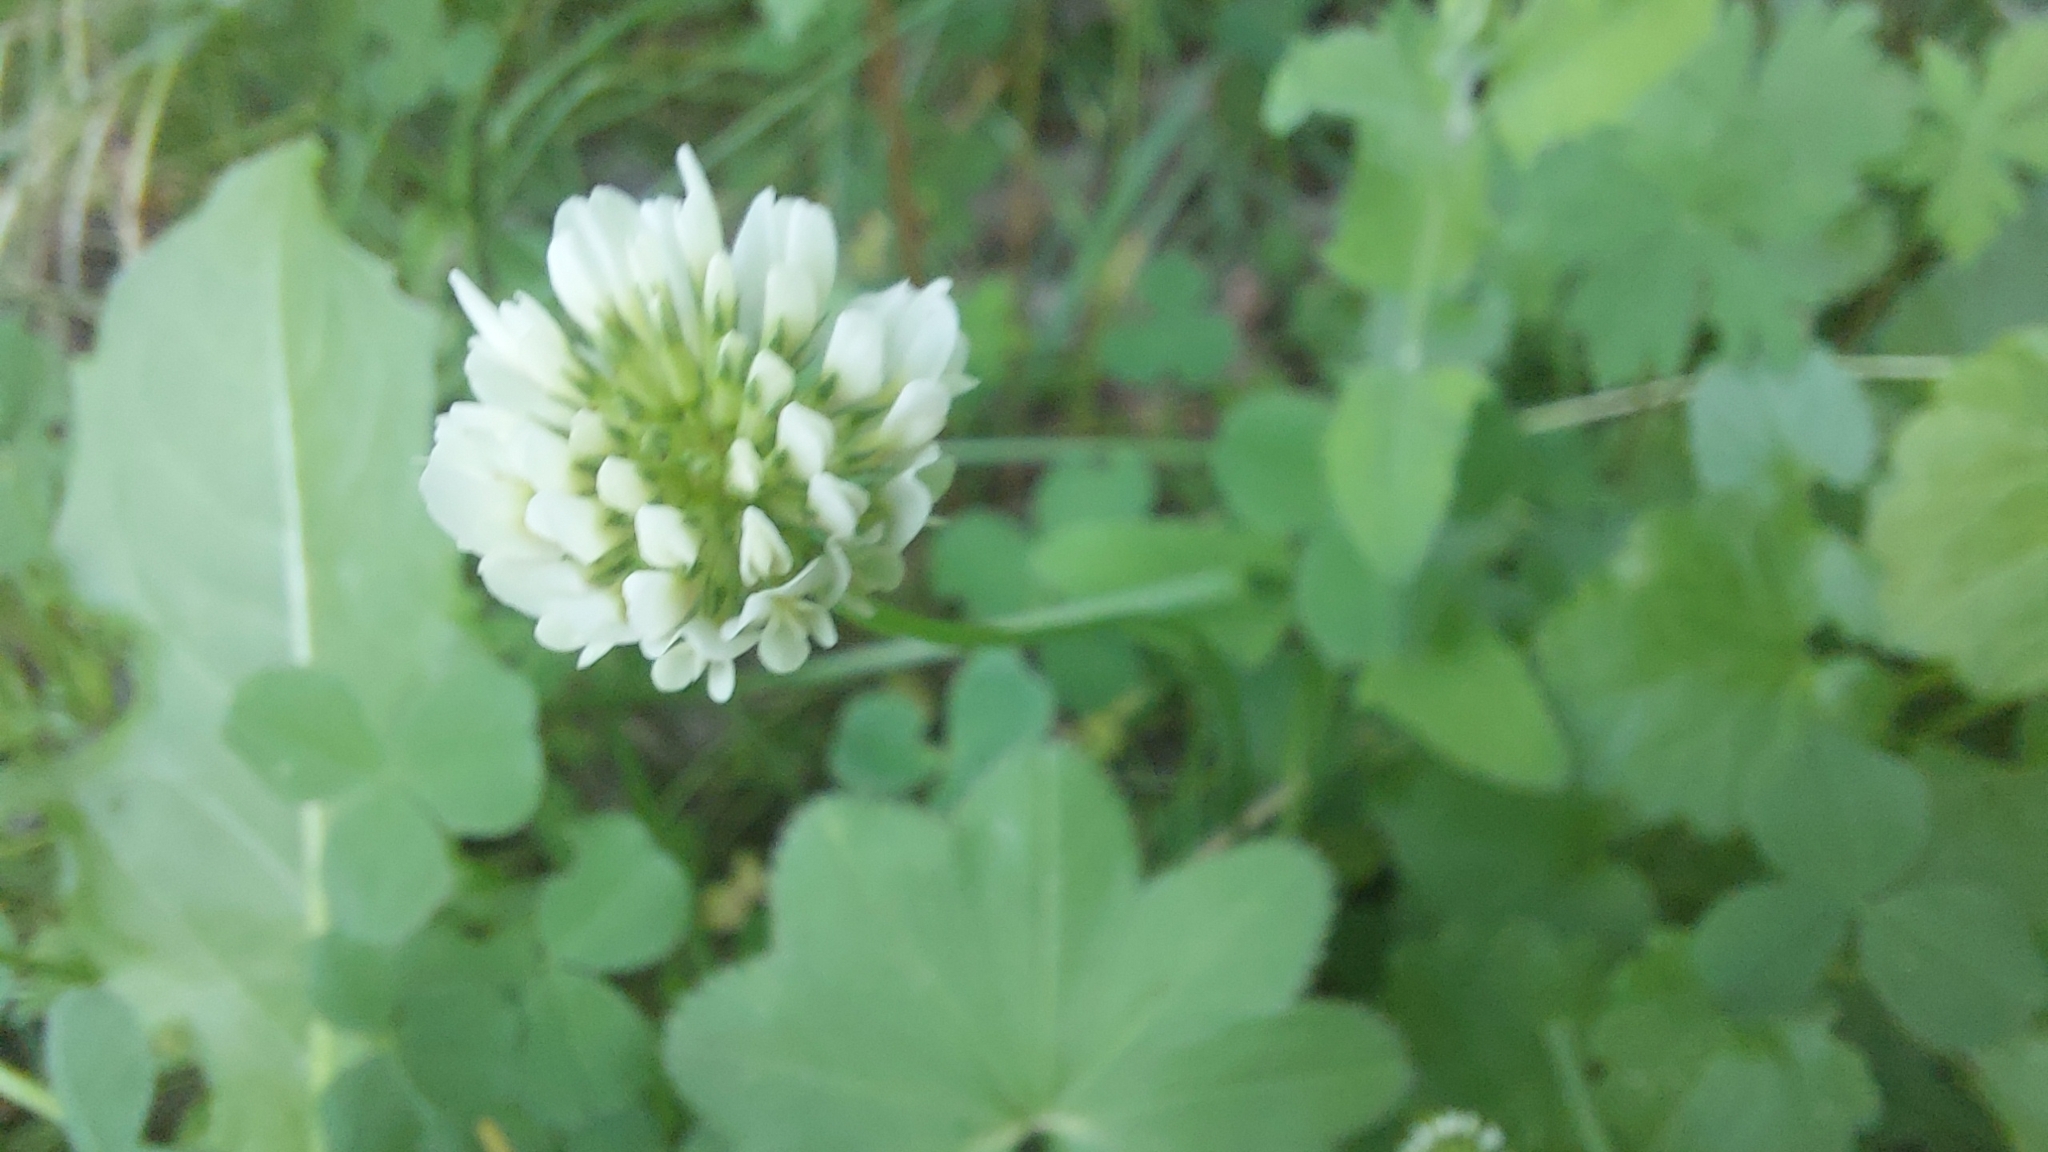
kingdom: Plantae
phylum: Tracheophyta
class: Magnoliopsida
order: Fabales
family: Fabaceae
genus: Trifolium
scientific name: Trifolium repens
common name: White clover
